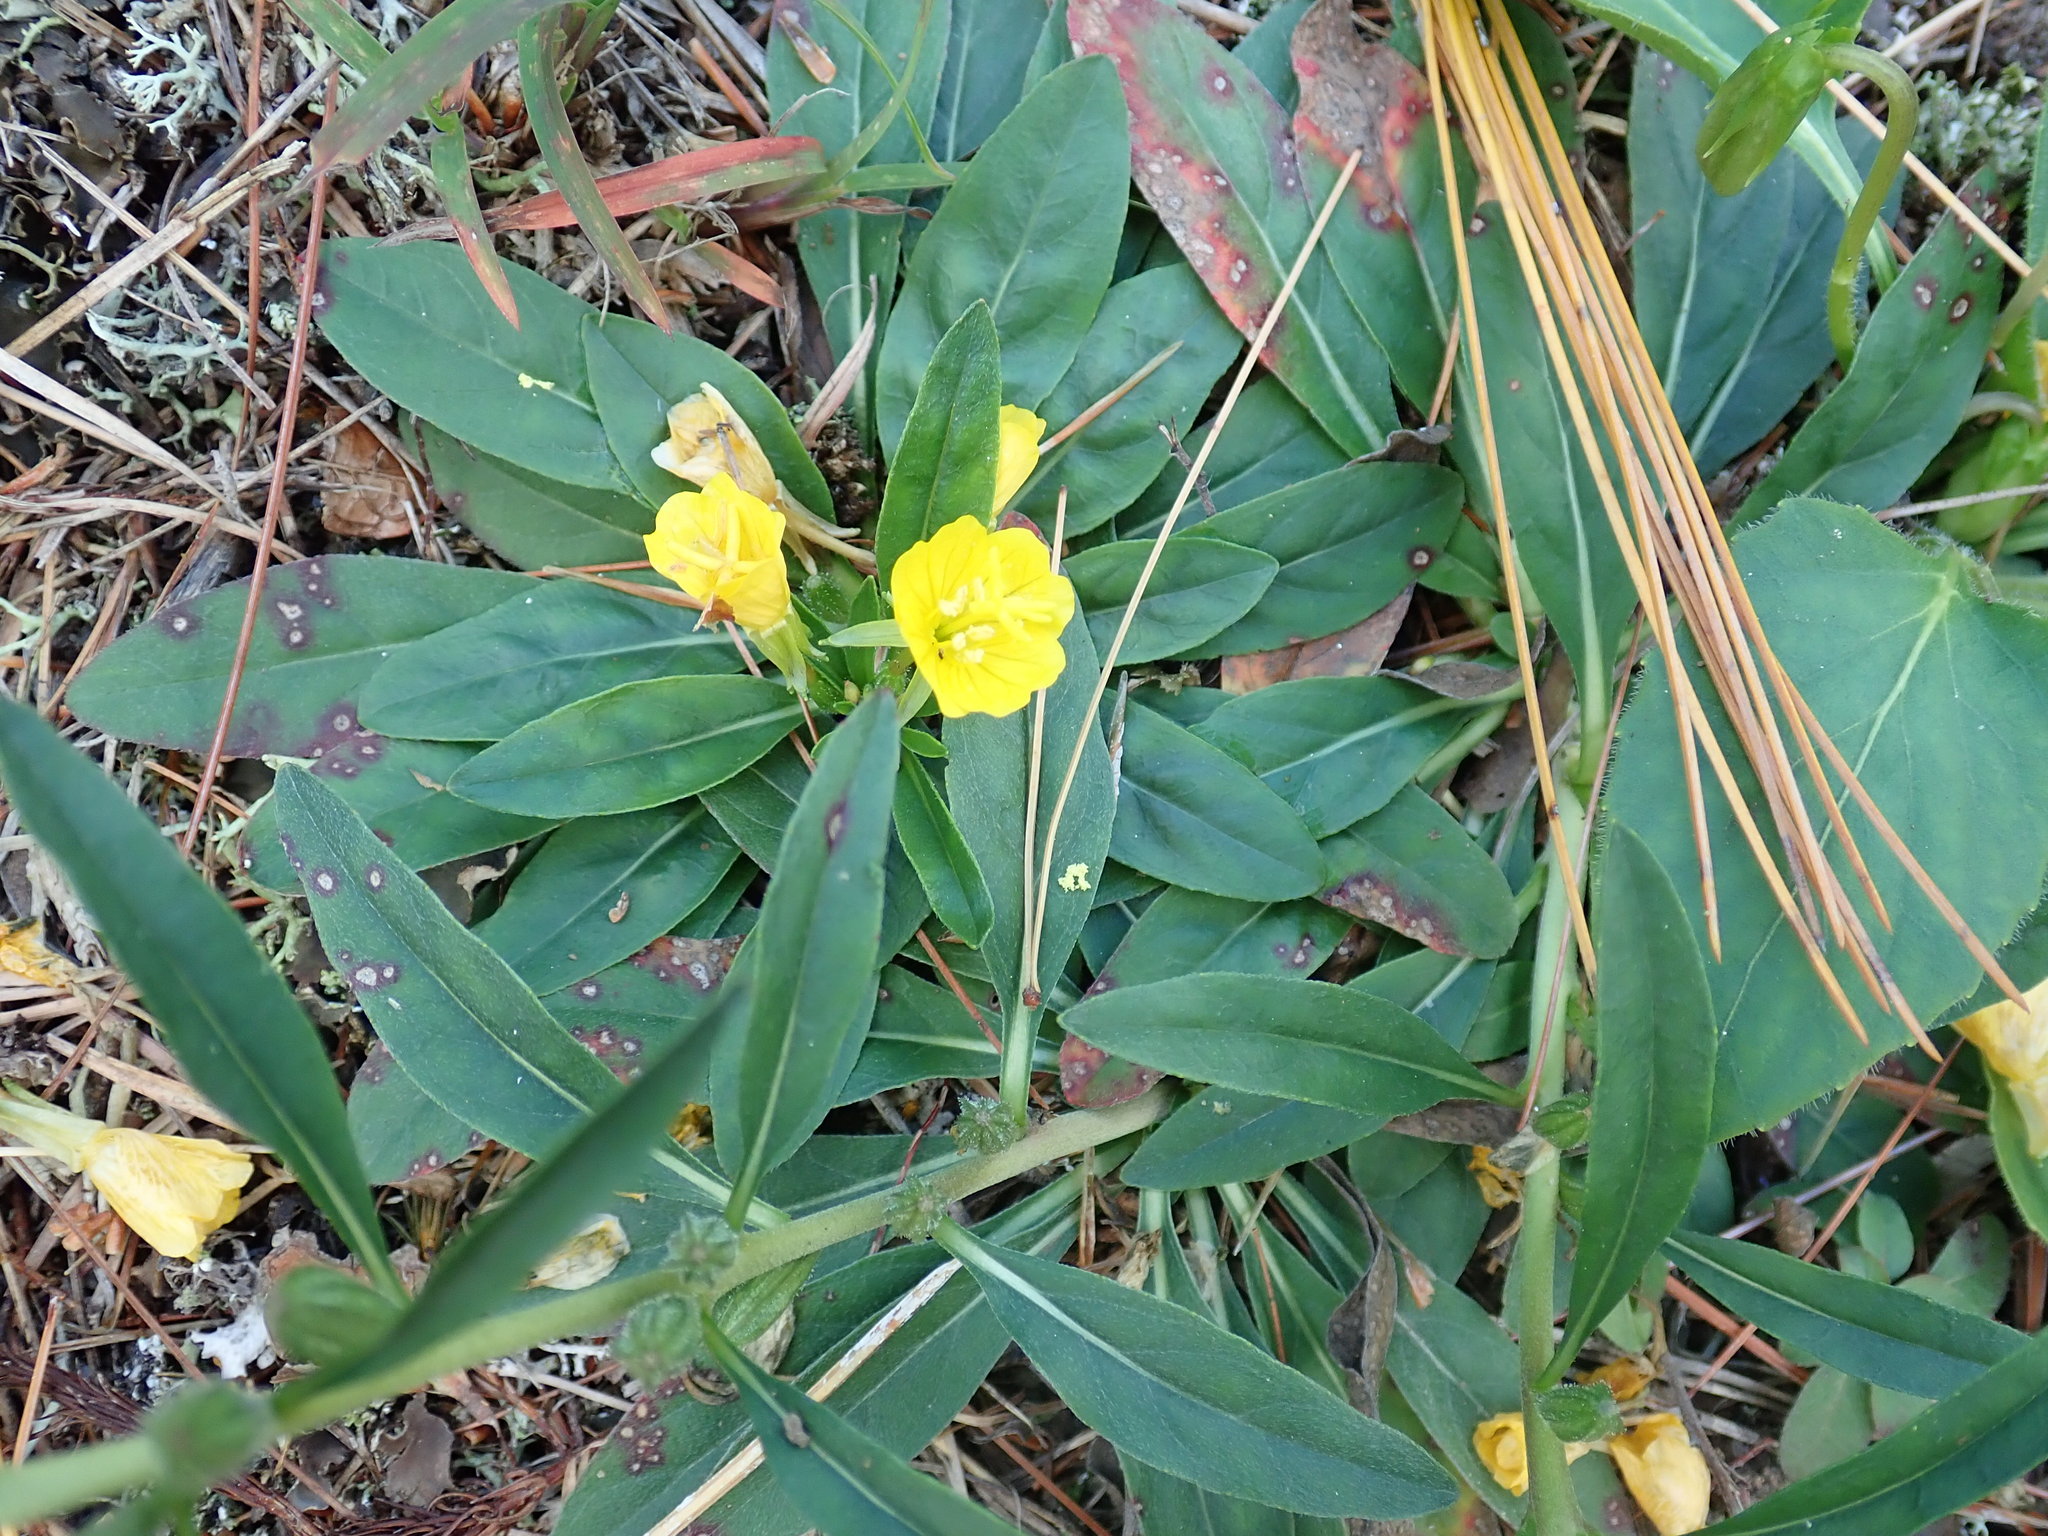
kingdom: Plantae
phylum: Tracheophyta
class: Magnoliopsida
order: Myrtales
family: Onagraceae
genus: Oenothera
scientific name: Oenothera perennis
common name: Small sundrops
